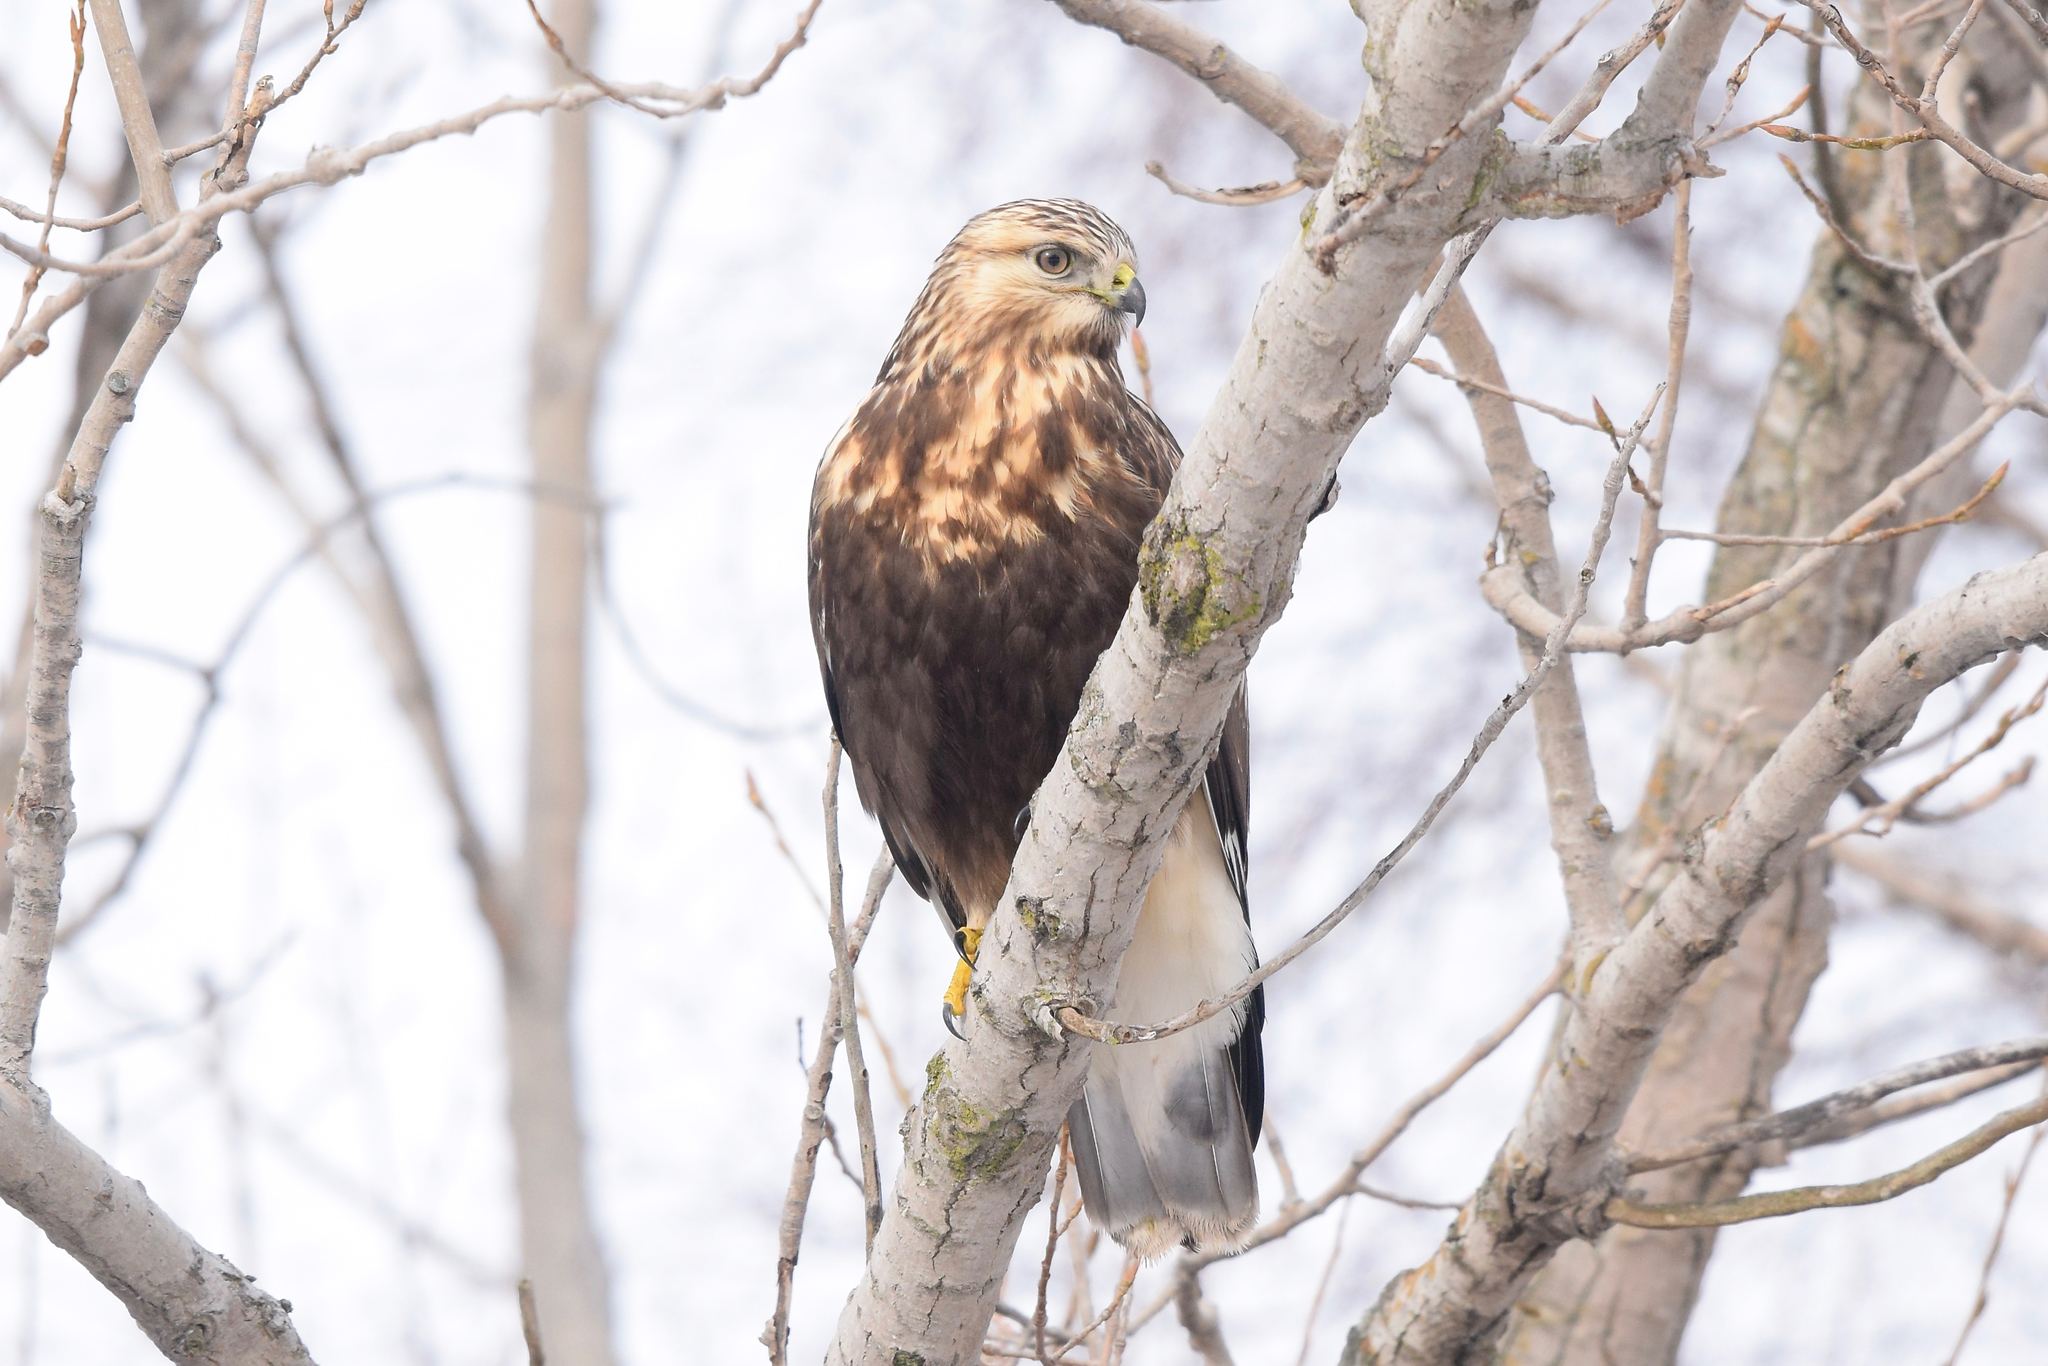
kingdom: Animalia
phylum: Chordata
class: Aves
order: Accipitriformes
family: Accipitridae
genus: Buteo
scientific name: Buteo lagopus
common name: Rough-legged buzzard
